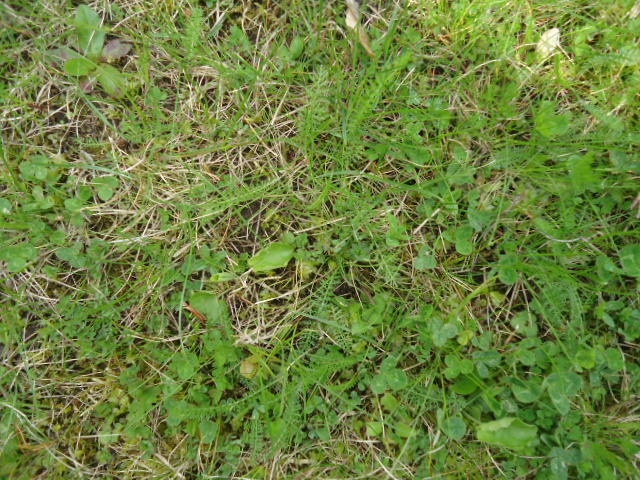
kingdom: Plantae
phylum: Tracheophyta
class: Magnoliopsida
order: Asterales
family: Asteraceae
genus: Achillea
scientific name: Achillea millefolium
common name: Yarrow
